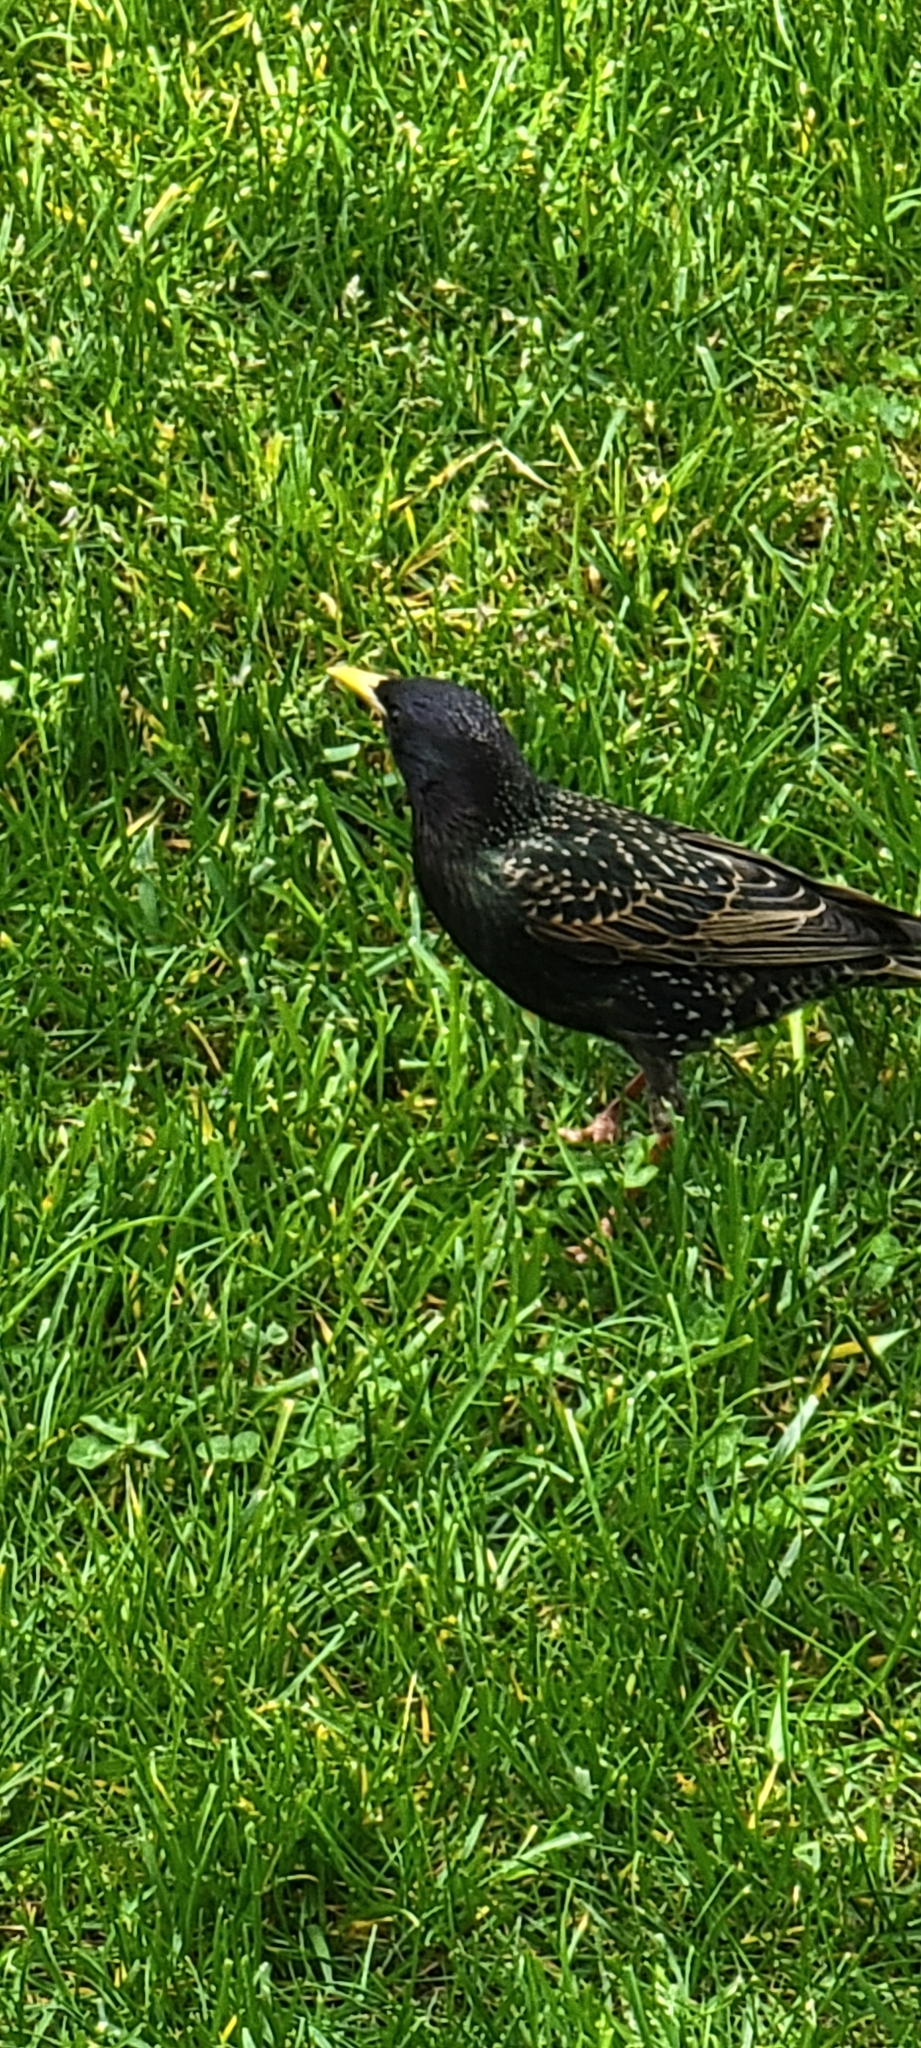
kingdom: Animalia
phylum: Chordata
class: Aves
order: Passeriformes
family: Sturnidae
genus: Sturnus
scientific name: Sturnus vulgaris
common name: Common starling
